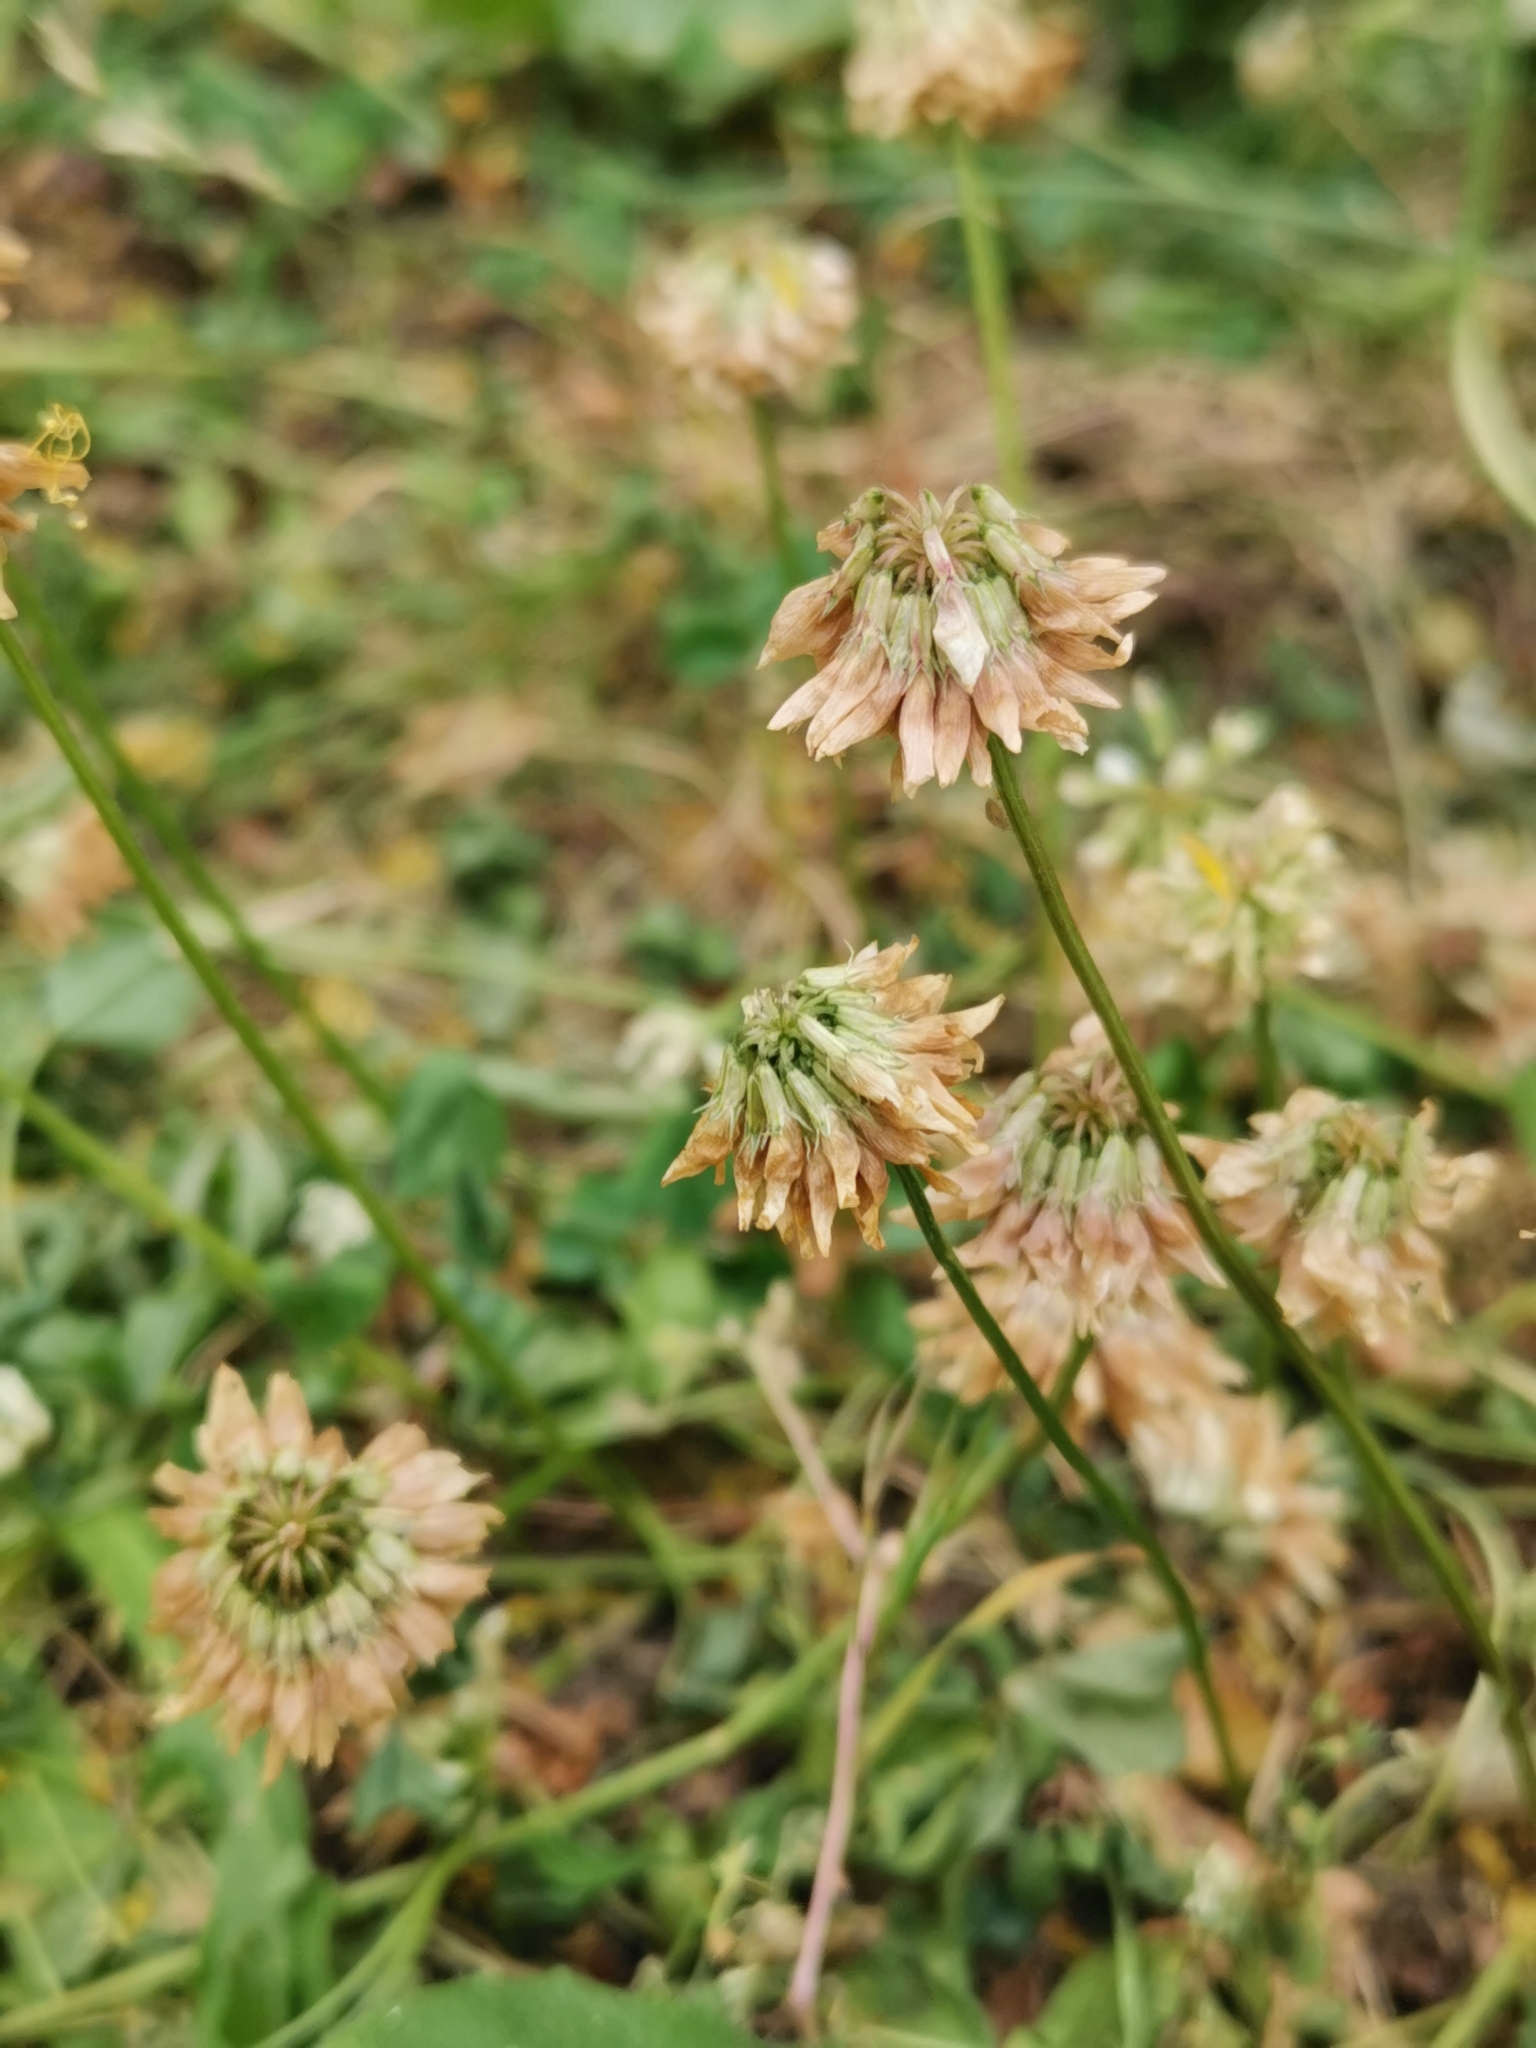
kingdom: Plantae
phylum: Tracheophyta
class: Magnoliopsida
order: Fabales
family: Fabaceae
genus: Trifolium
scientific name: Trifolium repens
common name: White clover
